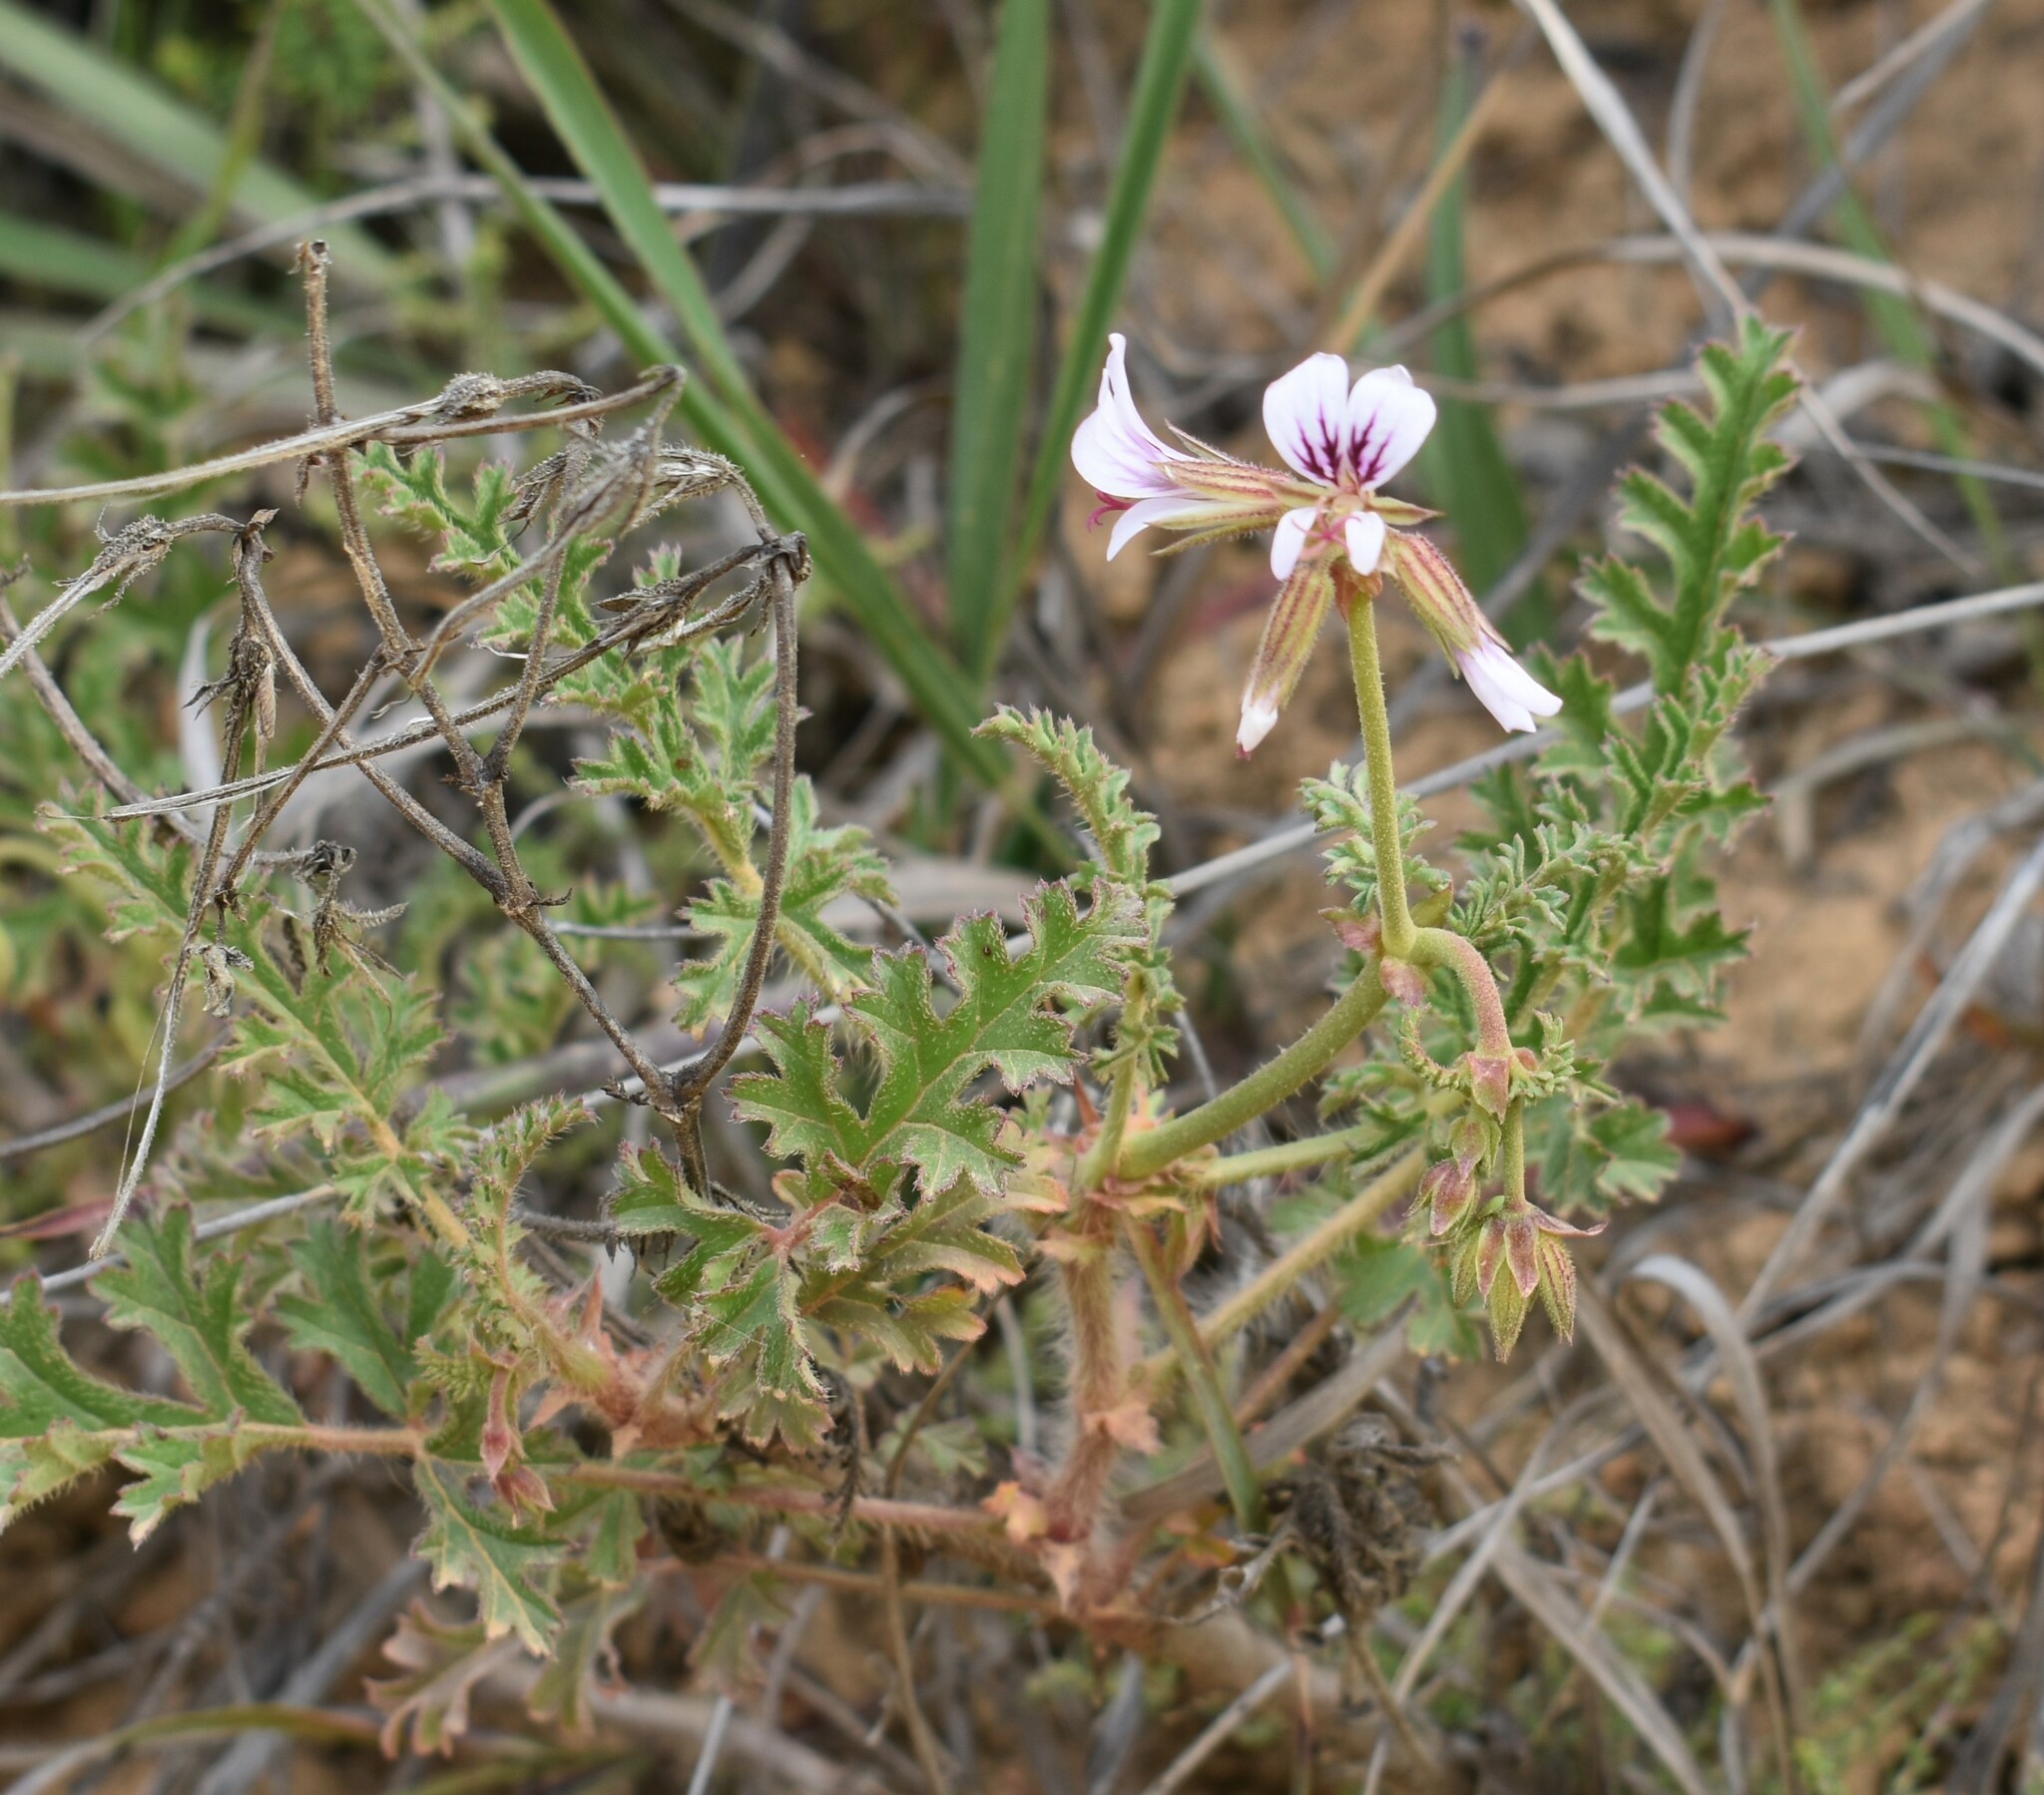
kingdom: Plantae
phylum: Tracheophyta
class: Magnoliopsida
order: Geraniales
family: Geraniaceae
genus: Pelargonium
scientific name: Pelargonium myrrhifolium
